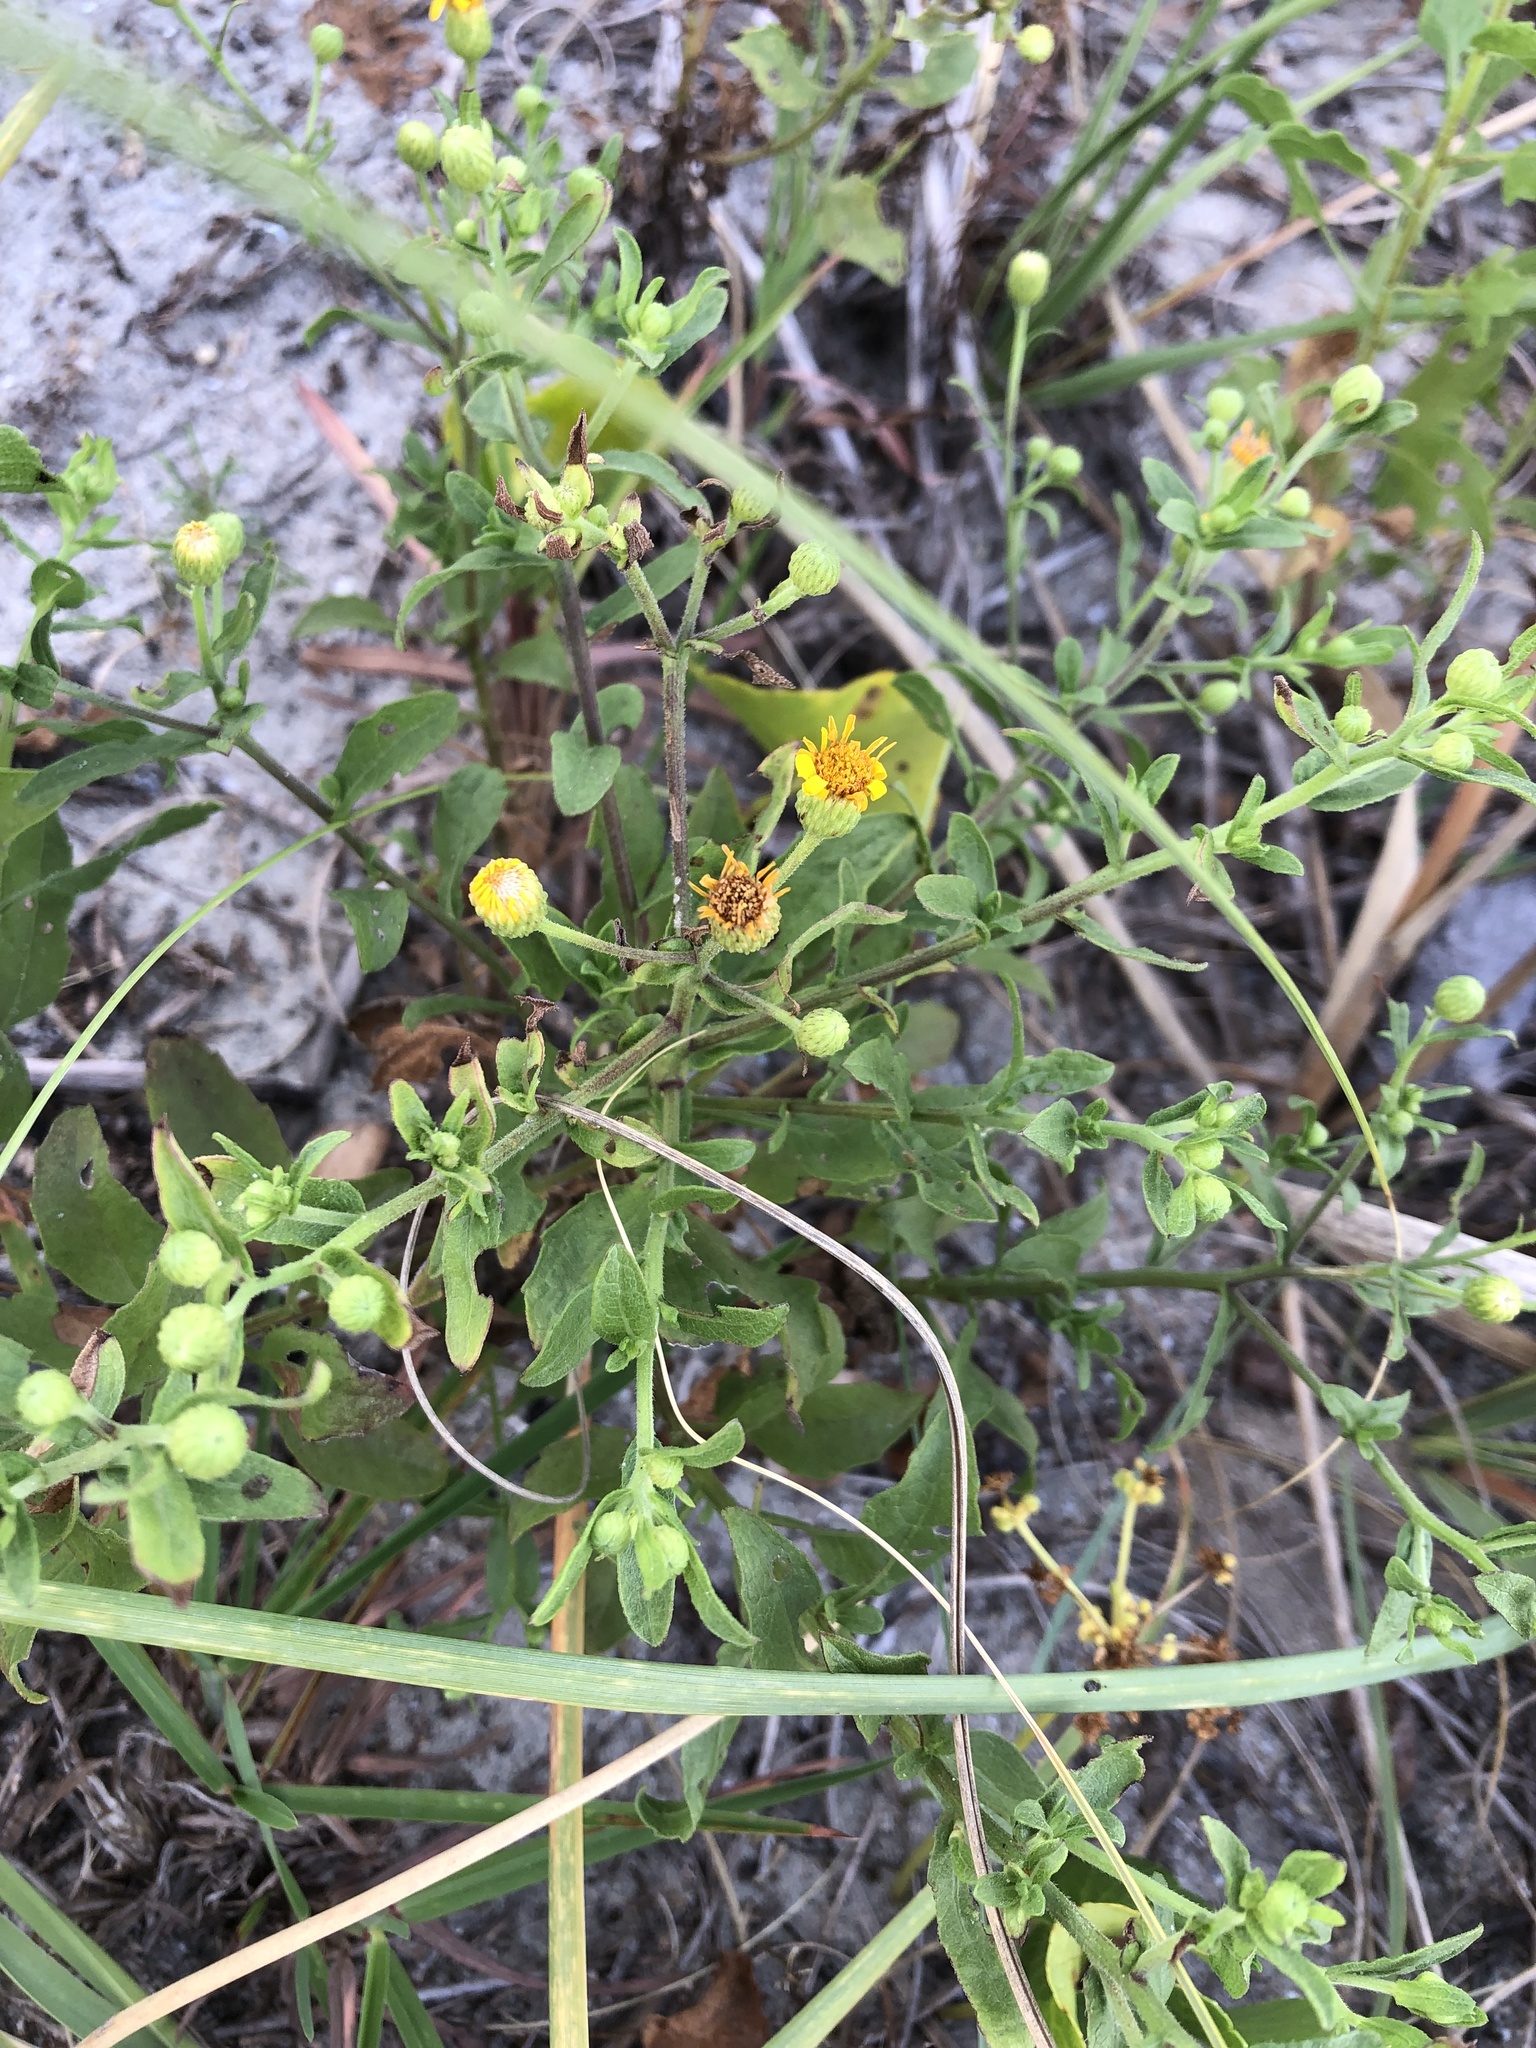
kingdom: Plantae
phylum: Tracheophyta
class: Magnoliopsida
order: Asterales
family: Asteraceae
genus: Heterotheca
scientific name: Heterotheca subaxillaris
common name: Camphorweed
